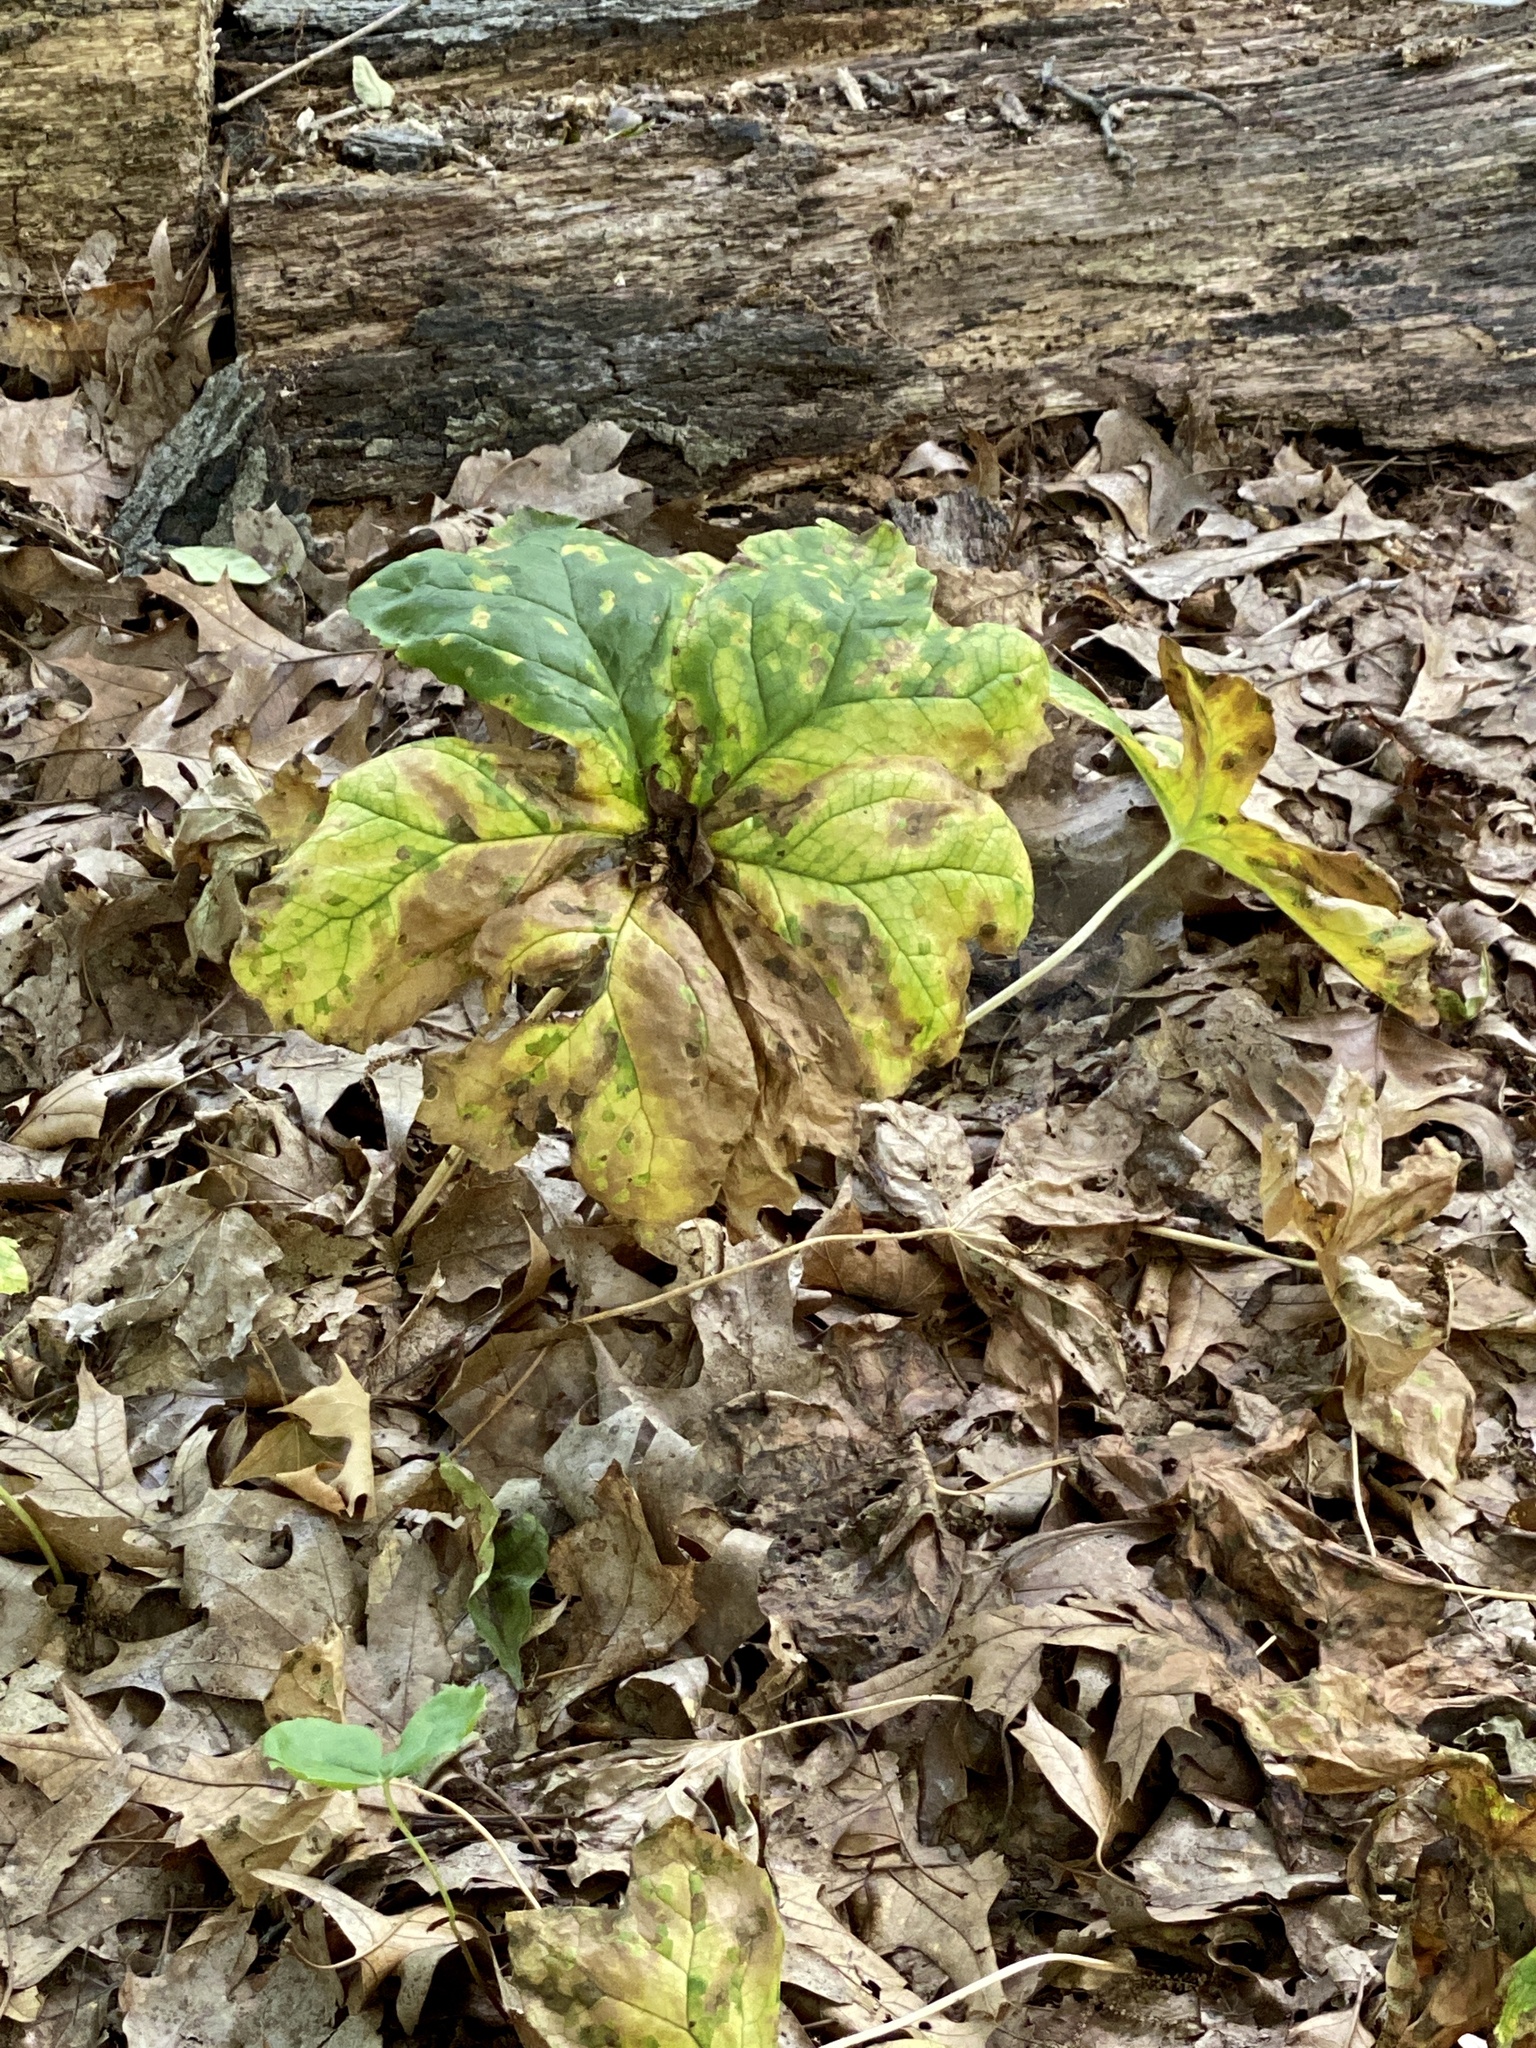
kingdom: Fungi
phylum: Basidiomycota
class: Pucciniomycetes
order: Pucciniales
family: Pucciniaceae
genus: Puccinia
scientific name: Puccinia podophylli
